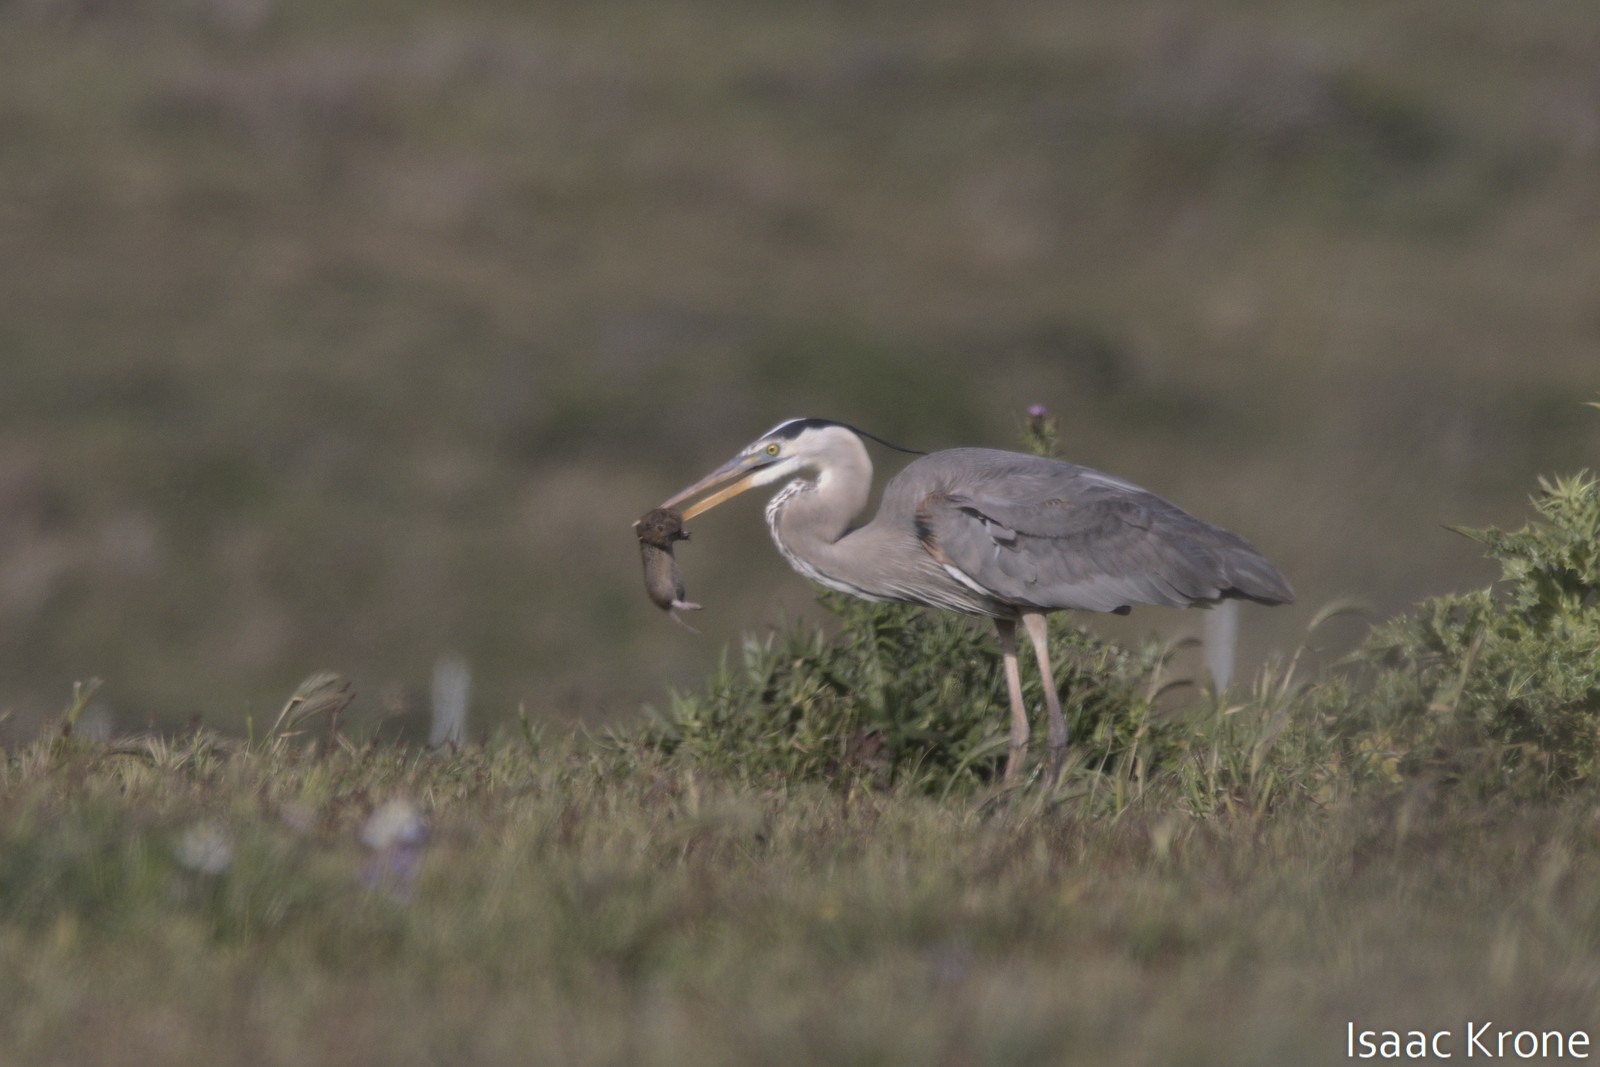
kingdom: Animalia
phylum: Chordata
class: Mammalia
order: Rodentia
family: Geomyidae
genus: Thomomys
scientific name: Thomomys bottae
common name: Botta's pocket gopher
